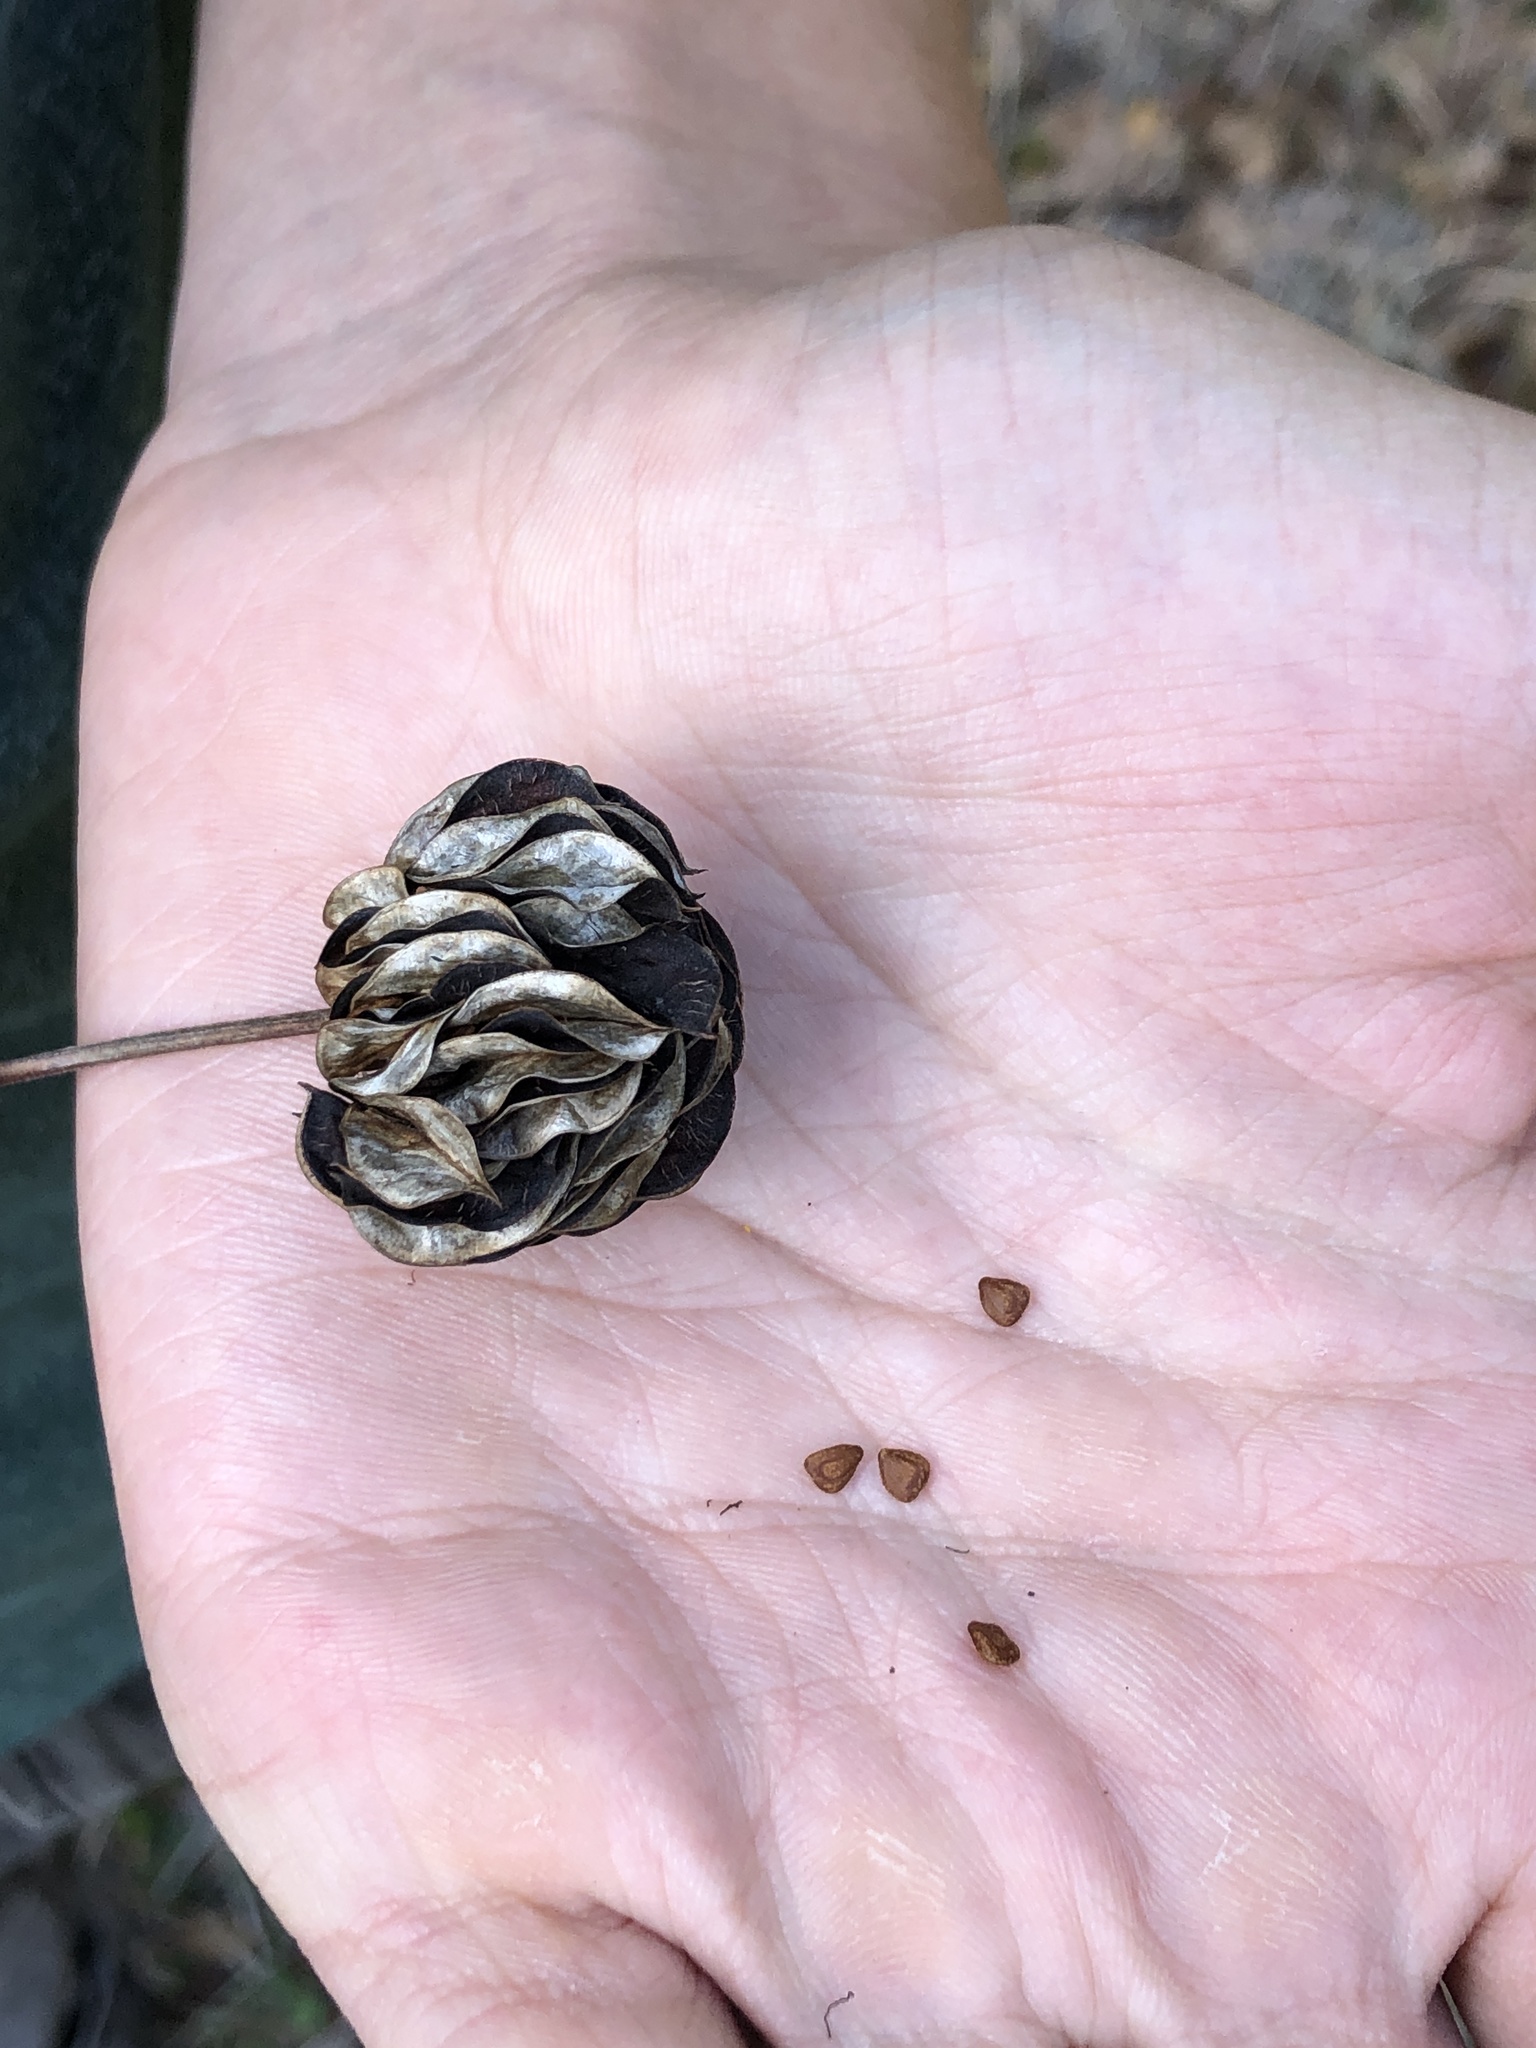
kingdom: Plantae
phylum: Tracheophyta
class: Magnoliopsida
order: Fabales
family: Fabaceae
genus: Desmanthus
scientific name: Desmanthus illinoensis
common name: Illinois bundle-flower
